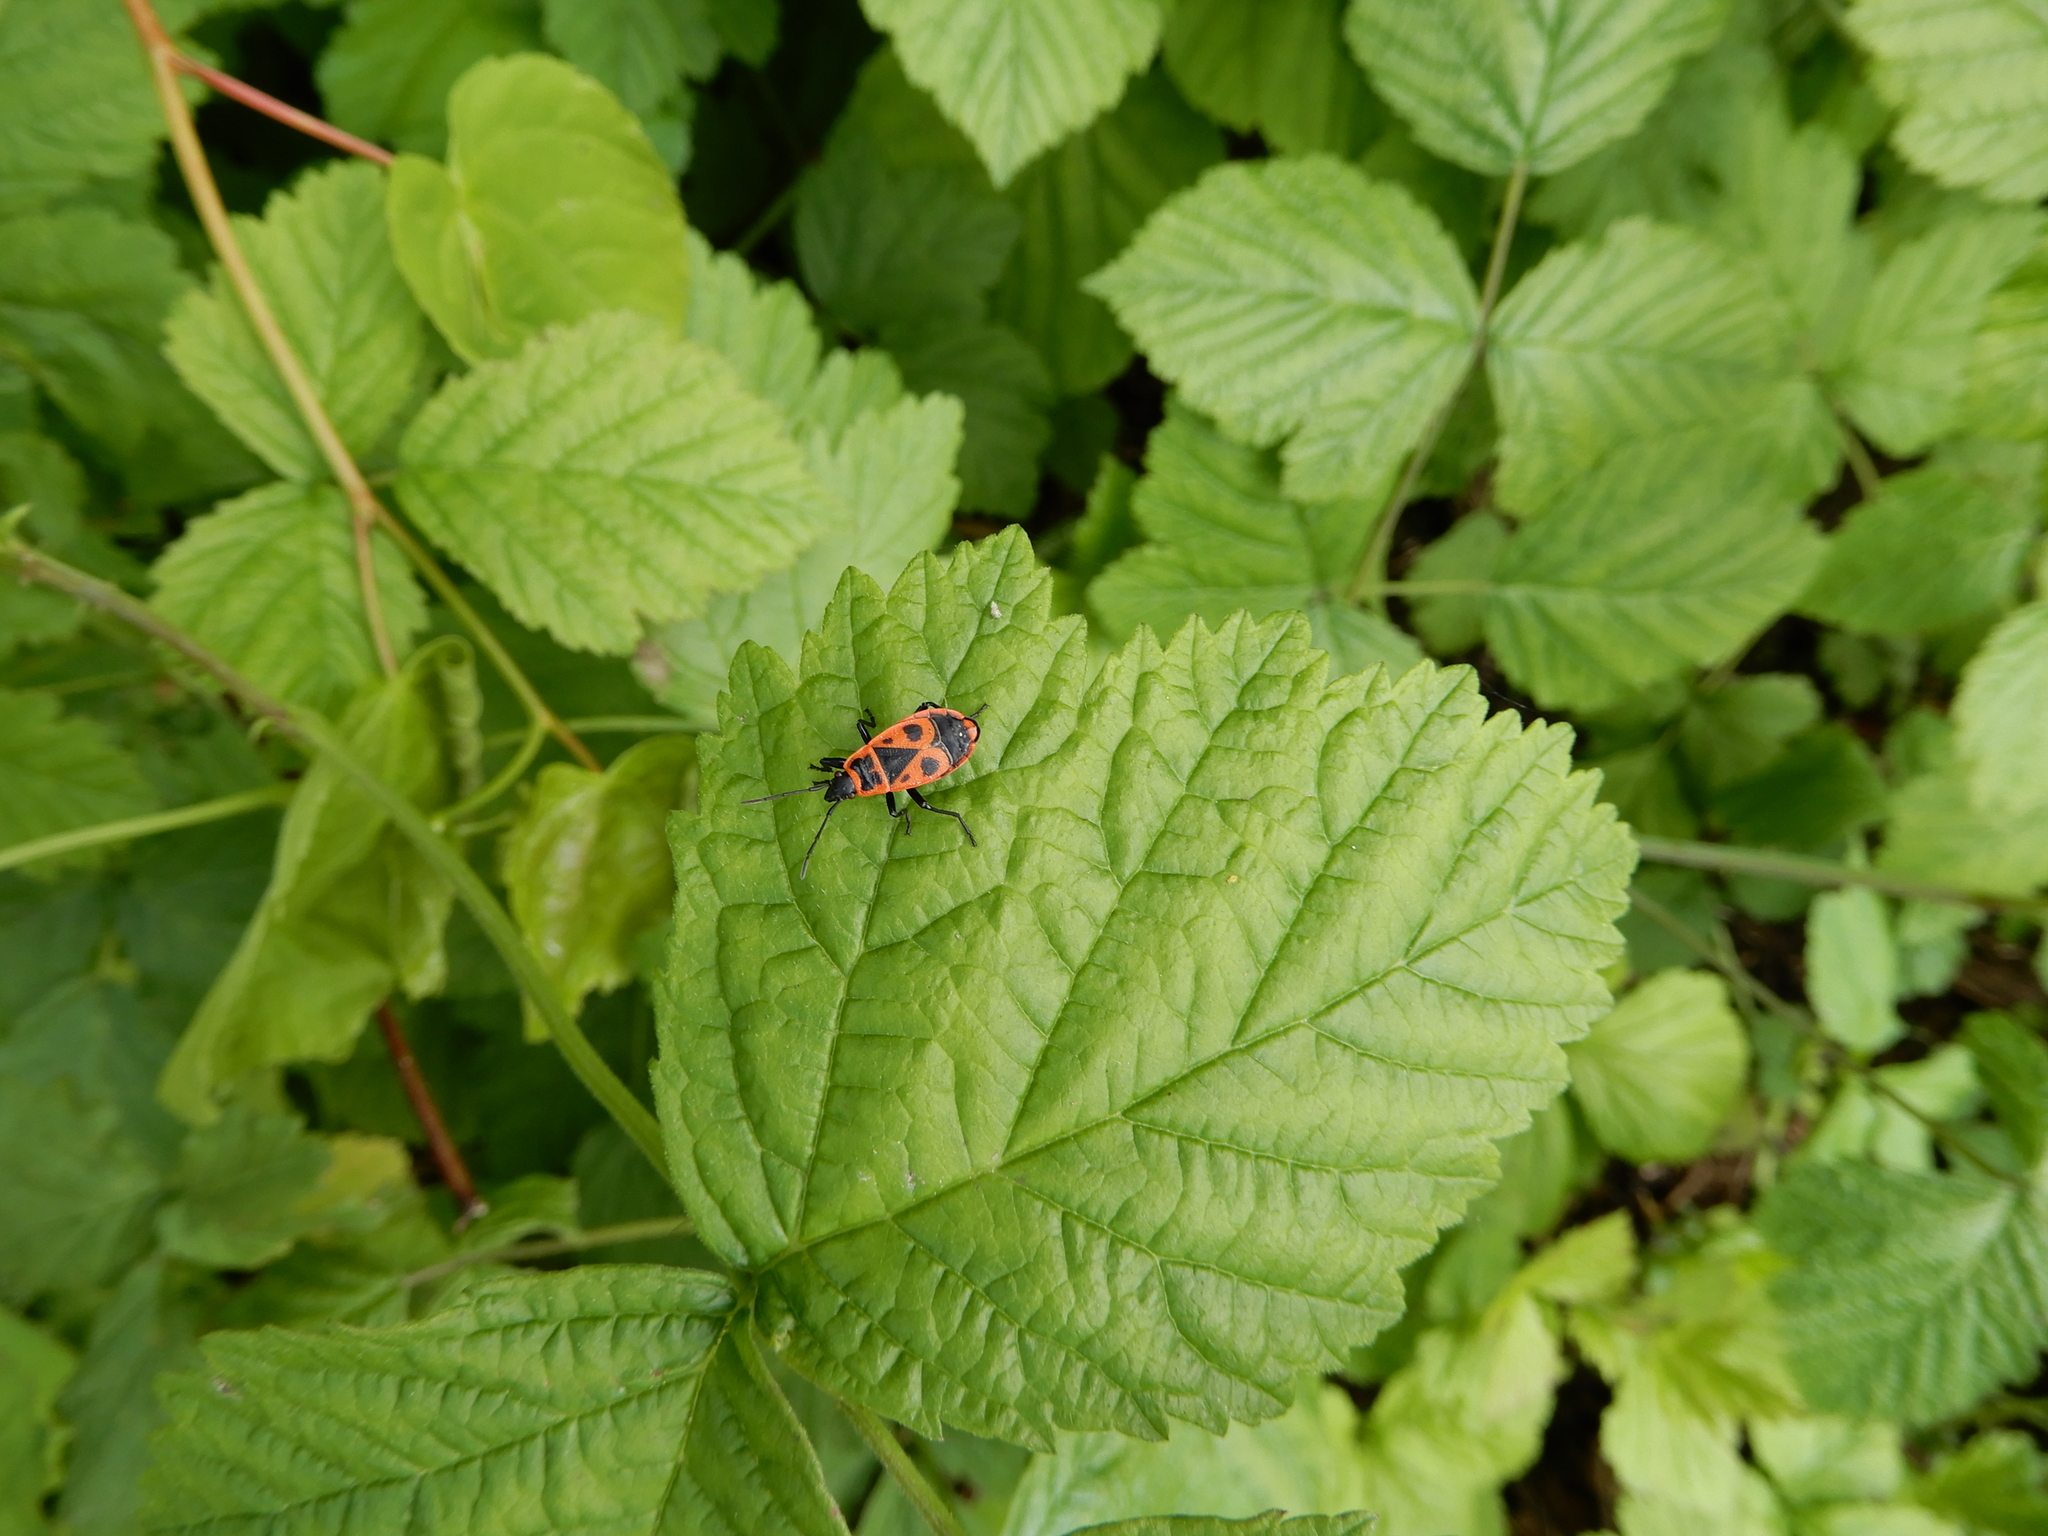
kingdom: Animalia
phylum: Arthropoda
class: Insecta
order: Hemiptera
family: Pyrrhocoridae
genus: Pyrrhocoris
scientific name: Pyrrhocoris apterus
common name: Firebug
